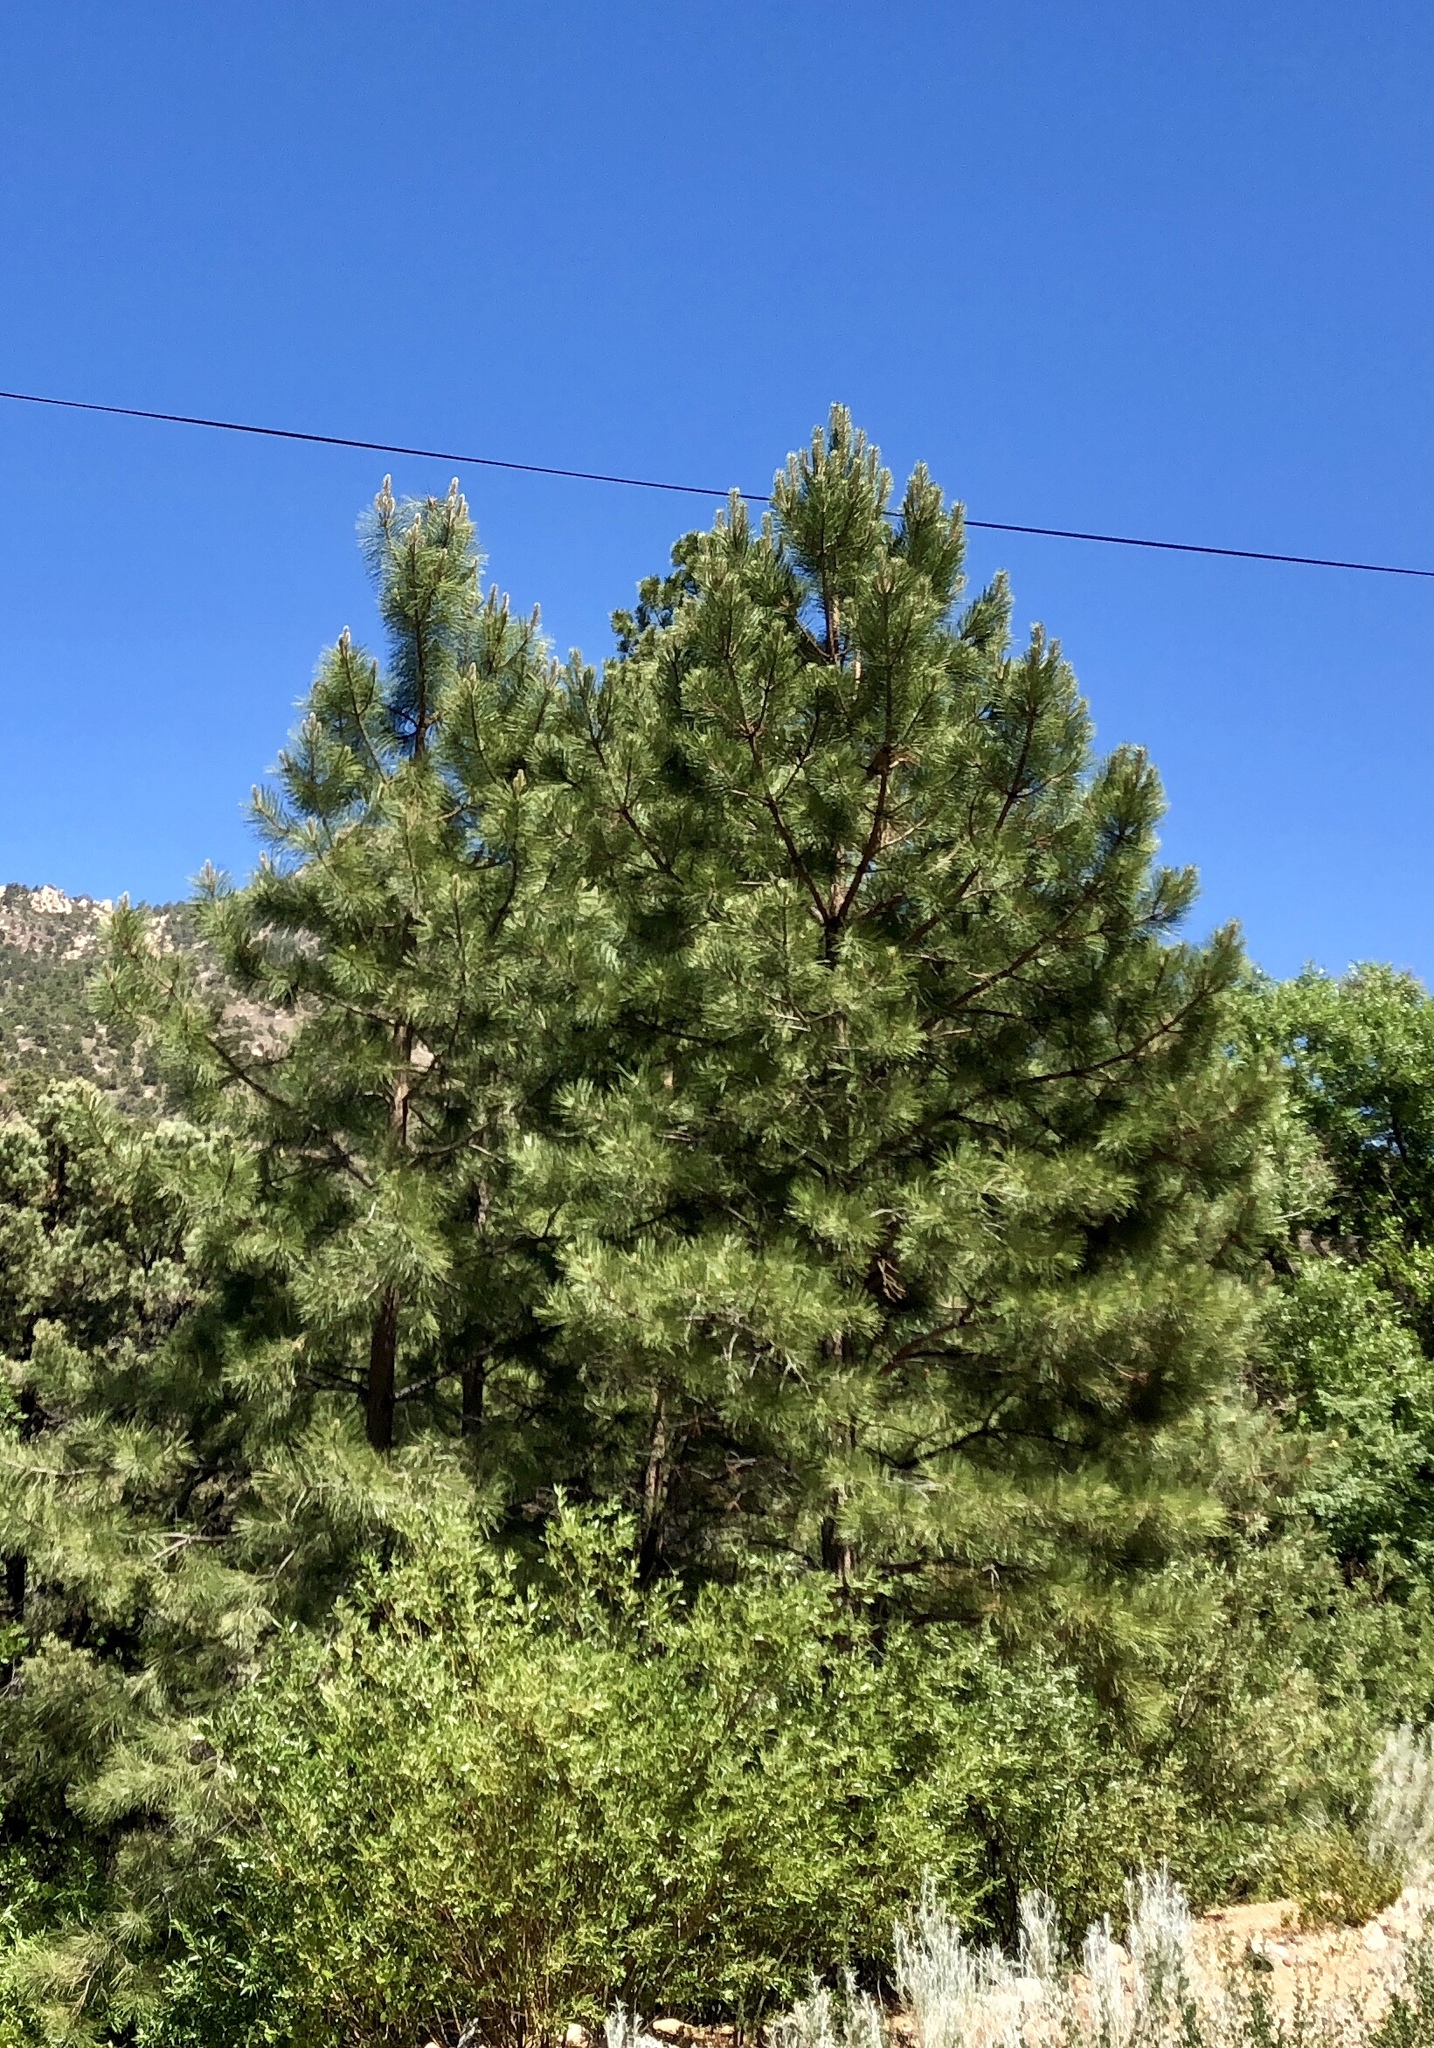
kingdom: Plantae
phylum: Tracheophyta
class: Pinopsida
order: Pinales
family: Pinaceae
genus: Pinus
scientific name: Pinus ponderosa
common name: Western yellow-pine
